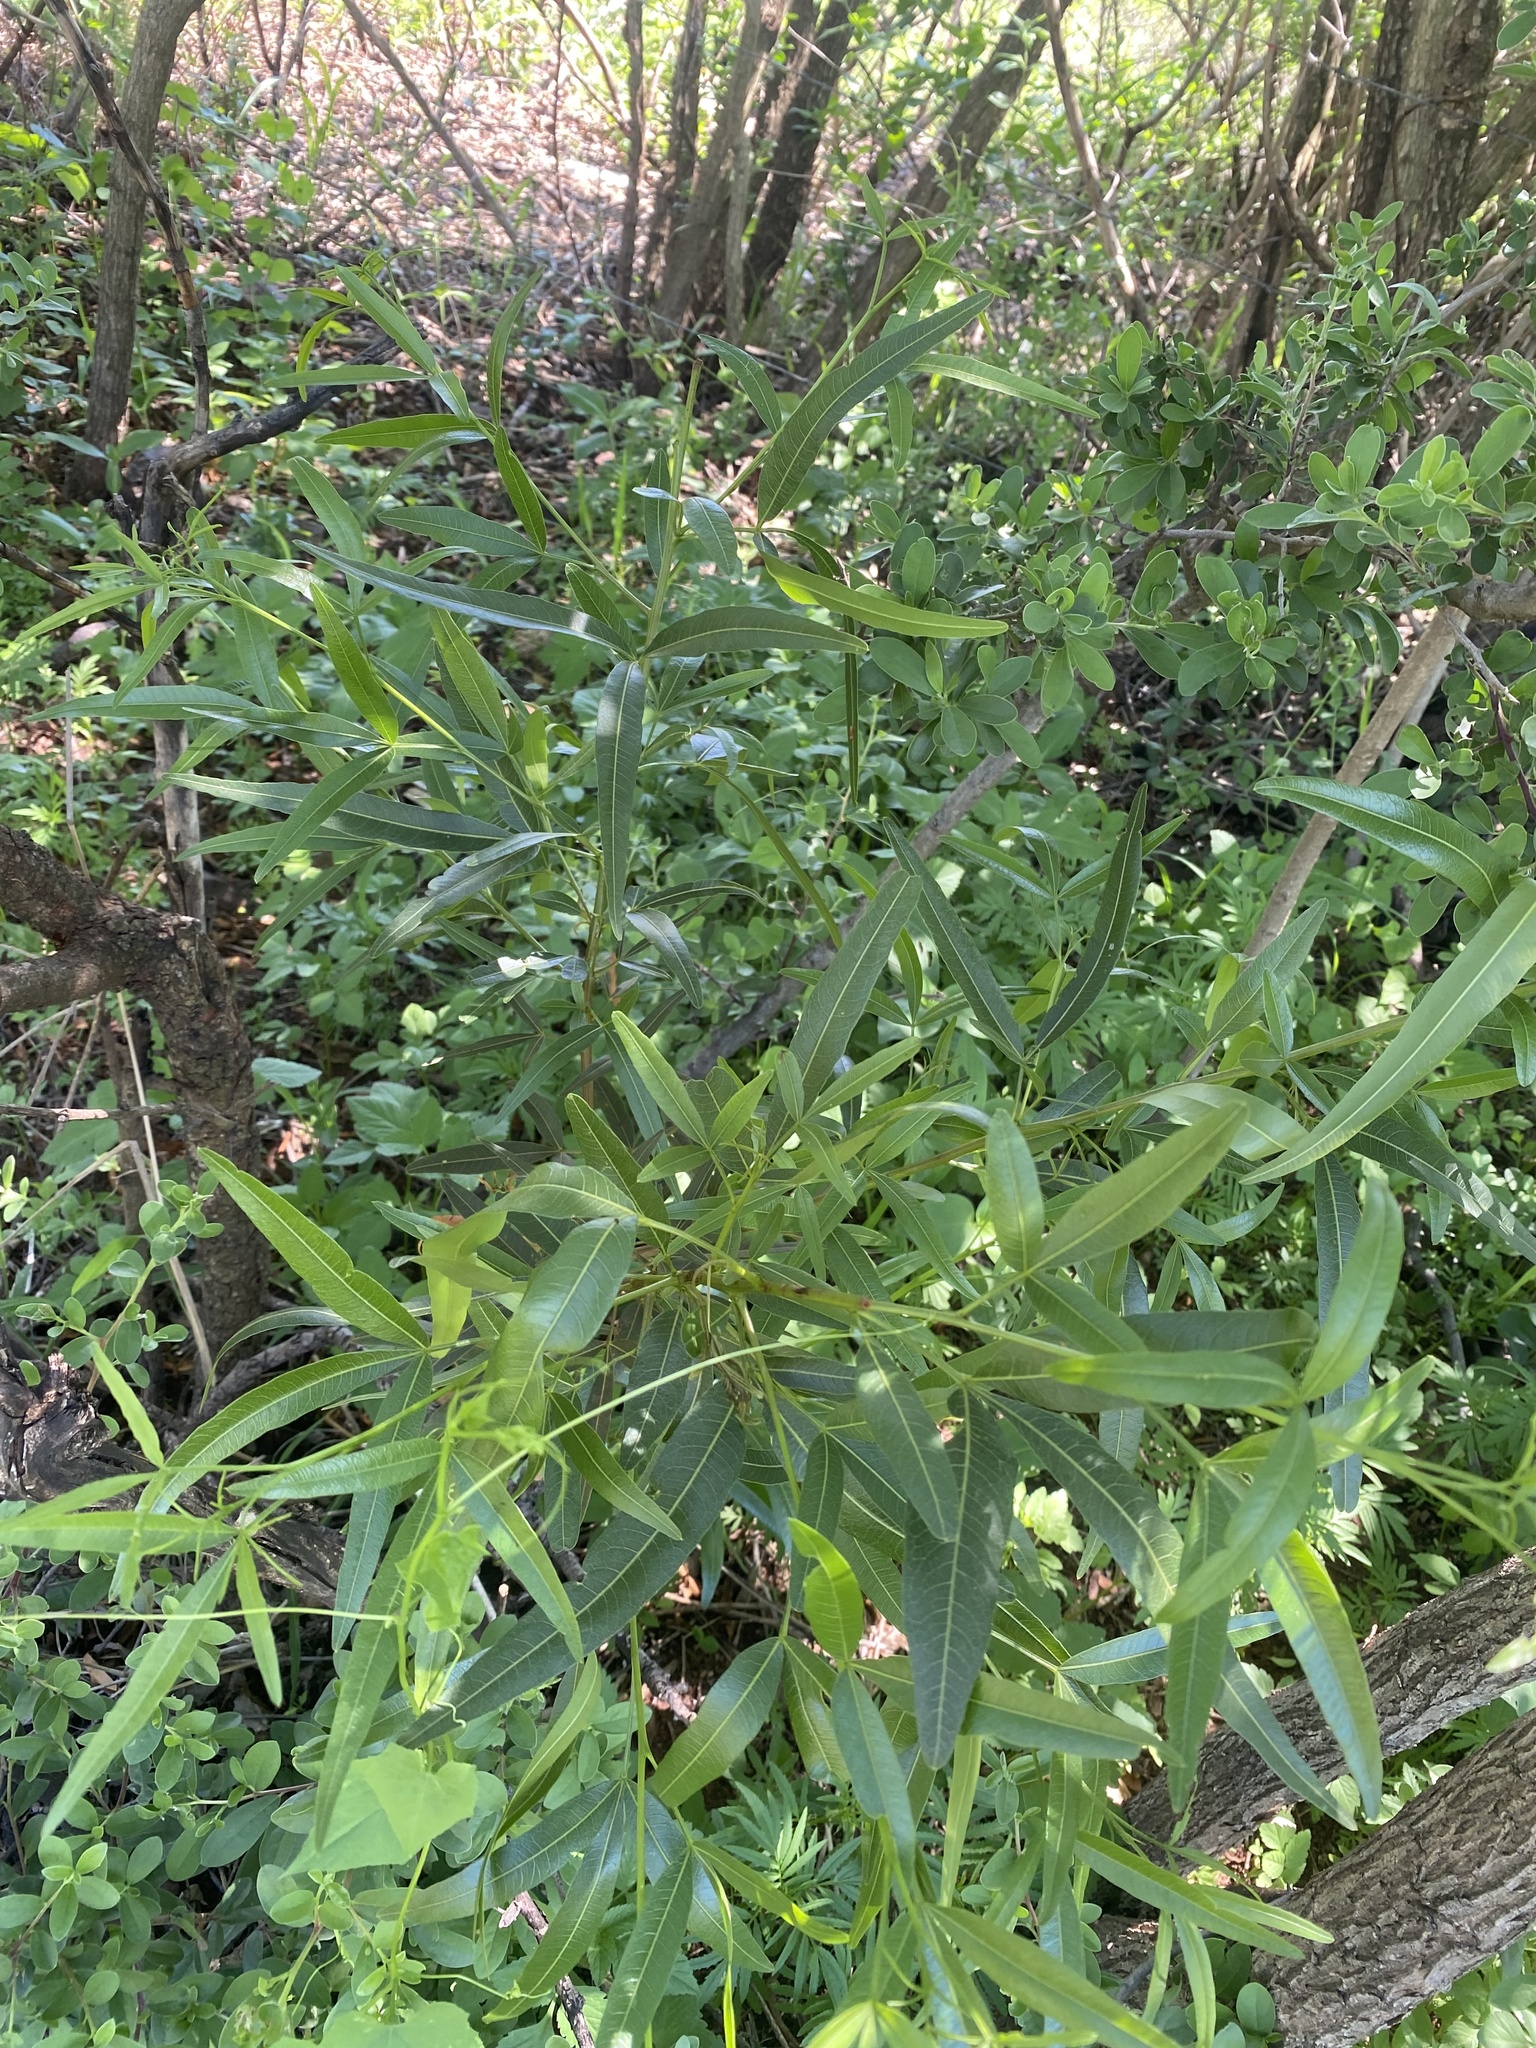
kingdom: Plantae
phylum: Tracheophyta
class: Magnoliopsida
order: Sapindales
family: Anacardiaceae
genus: Searsia
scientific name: Searsia lancea
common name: Cashew
